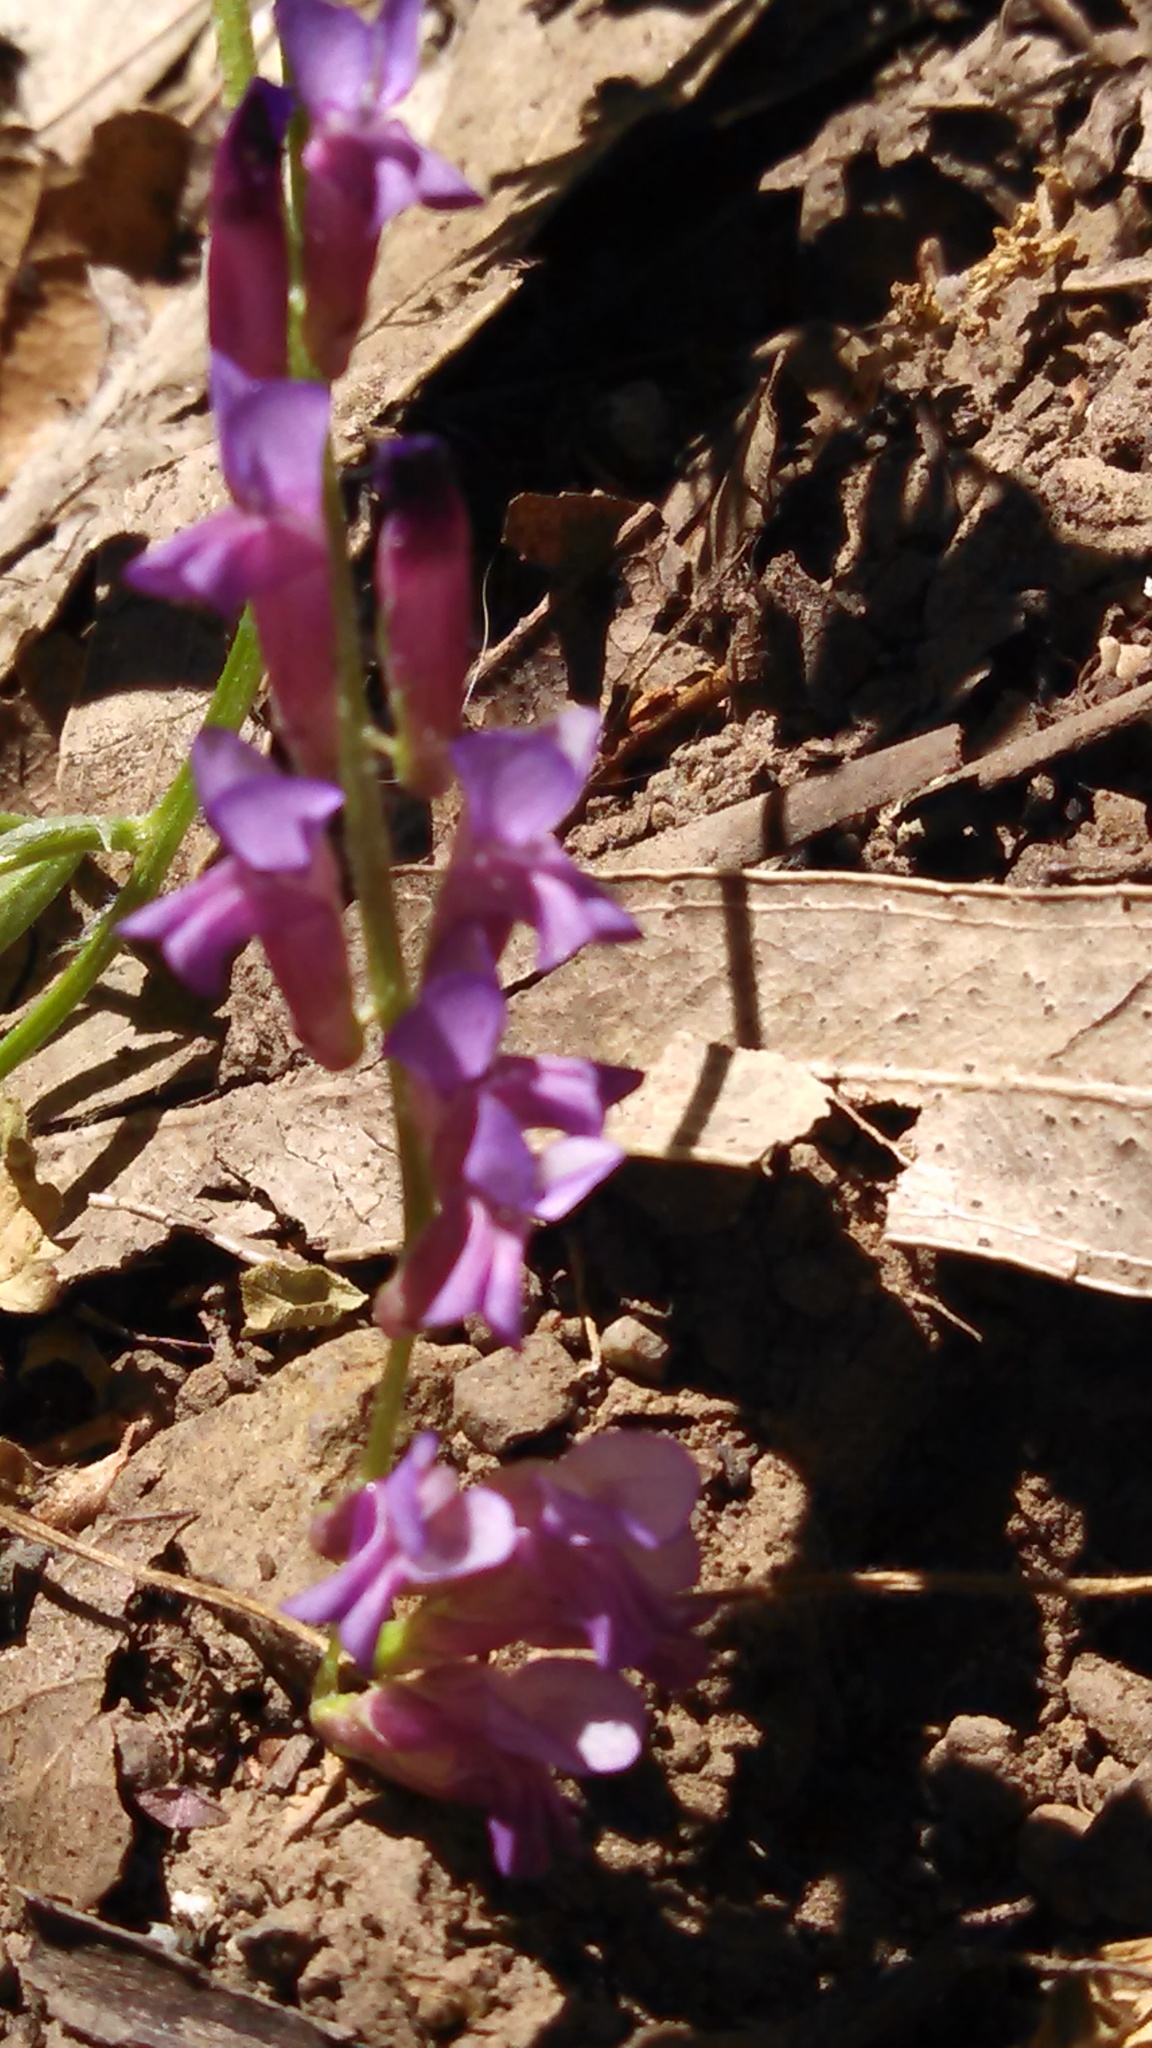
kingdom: Plantae
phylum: Tracheophyta
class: Magnoliopsida
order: Fabales
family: Fabaceae
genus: Vicia
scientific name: Vicia villosa
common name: Fodder vetch
